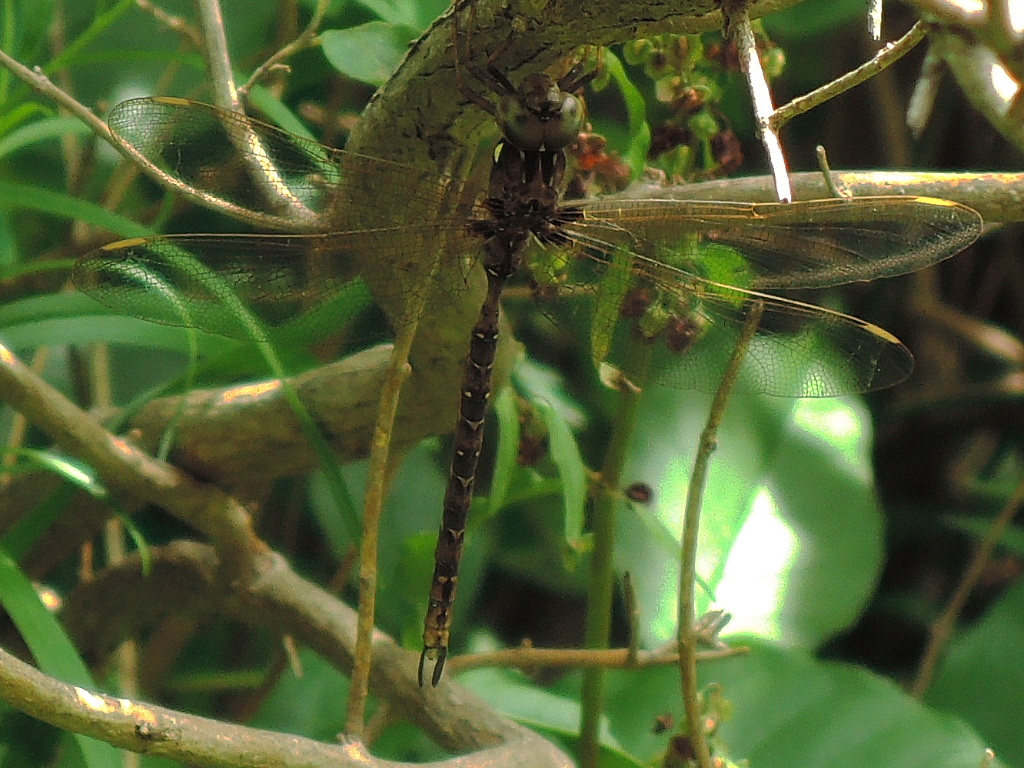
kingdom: Animalia
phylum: Arthropoda
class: Insecta
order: Odonata
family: Aeshnidae
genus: Boyeria
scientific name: Boyeria vinosa
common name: Fawn darner
